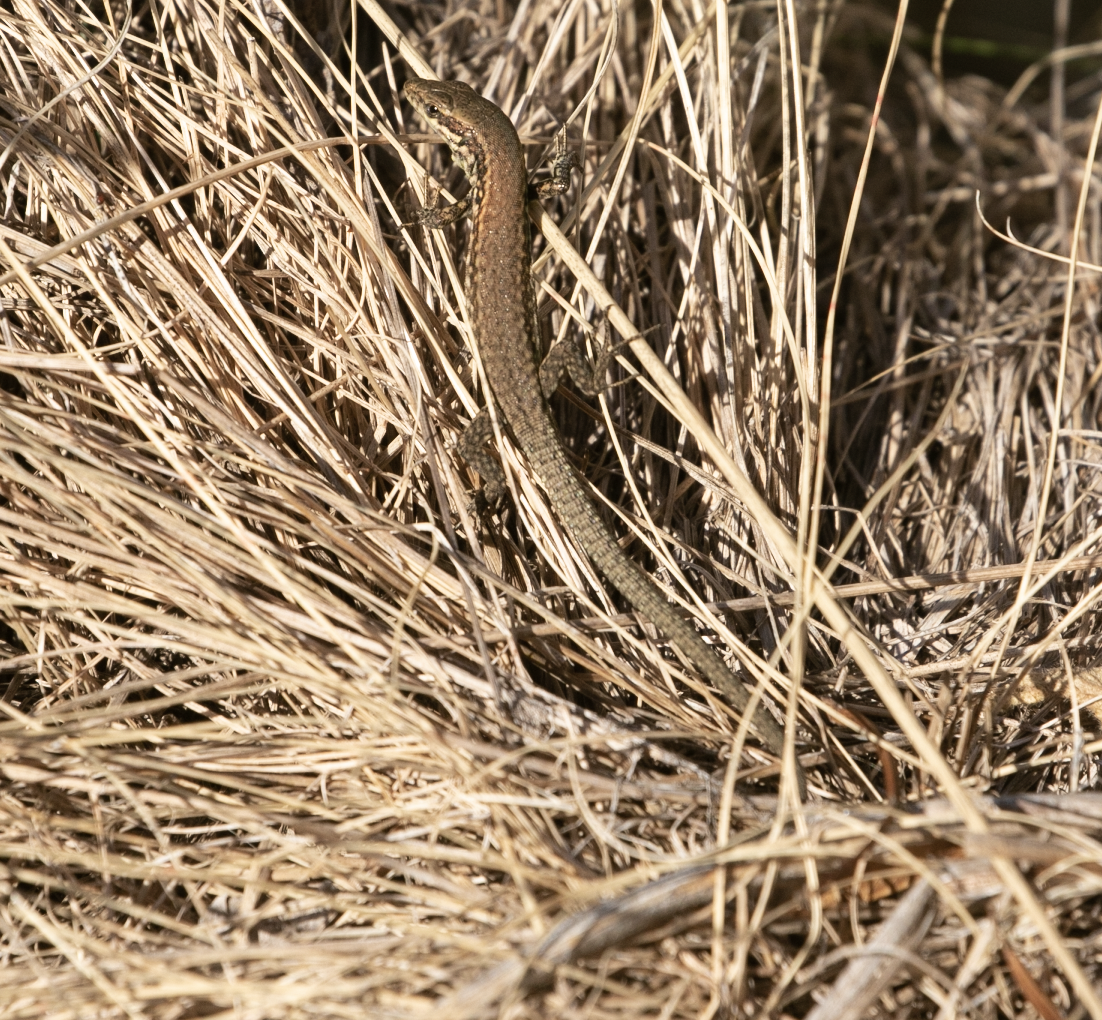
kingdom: Animalia
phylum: Chordata
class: Squamata
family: Lacertidae
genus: Podarcis
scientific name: Podarcis muralis
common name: Common wall lizard
